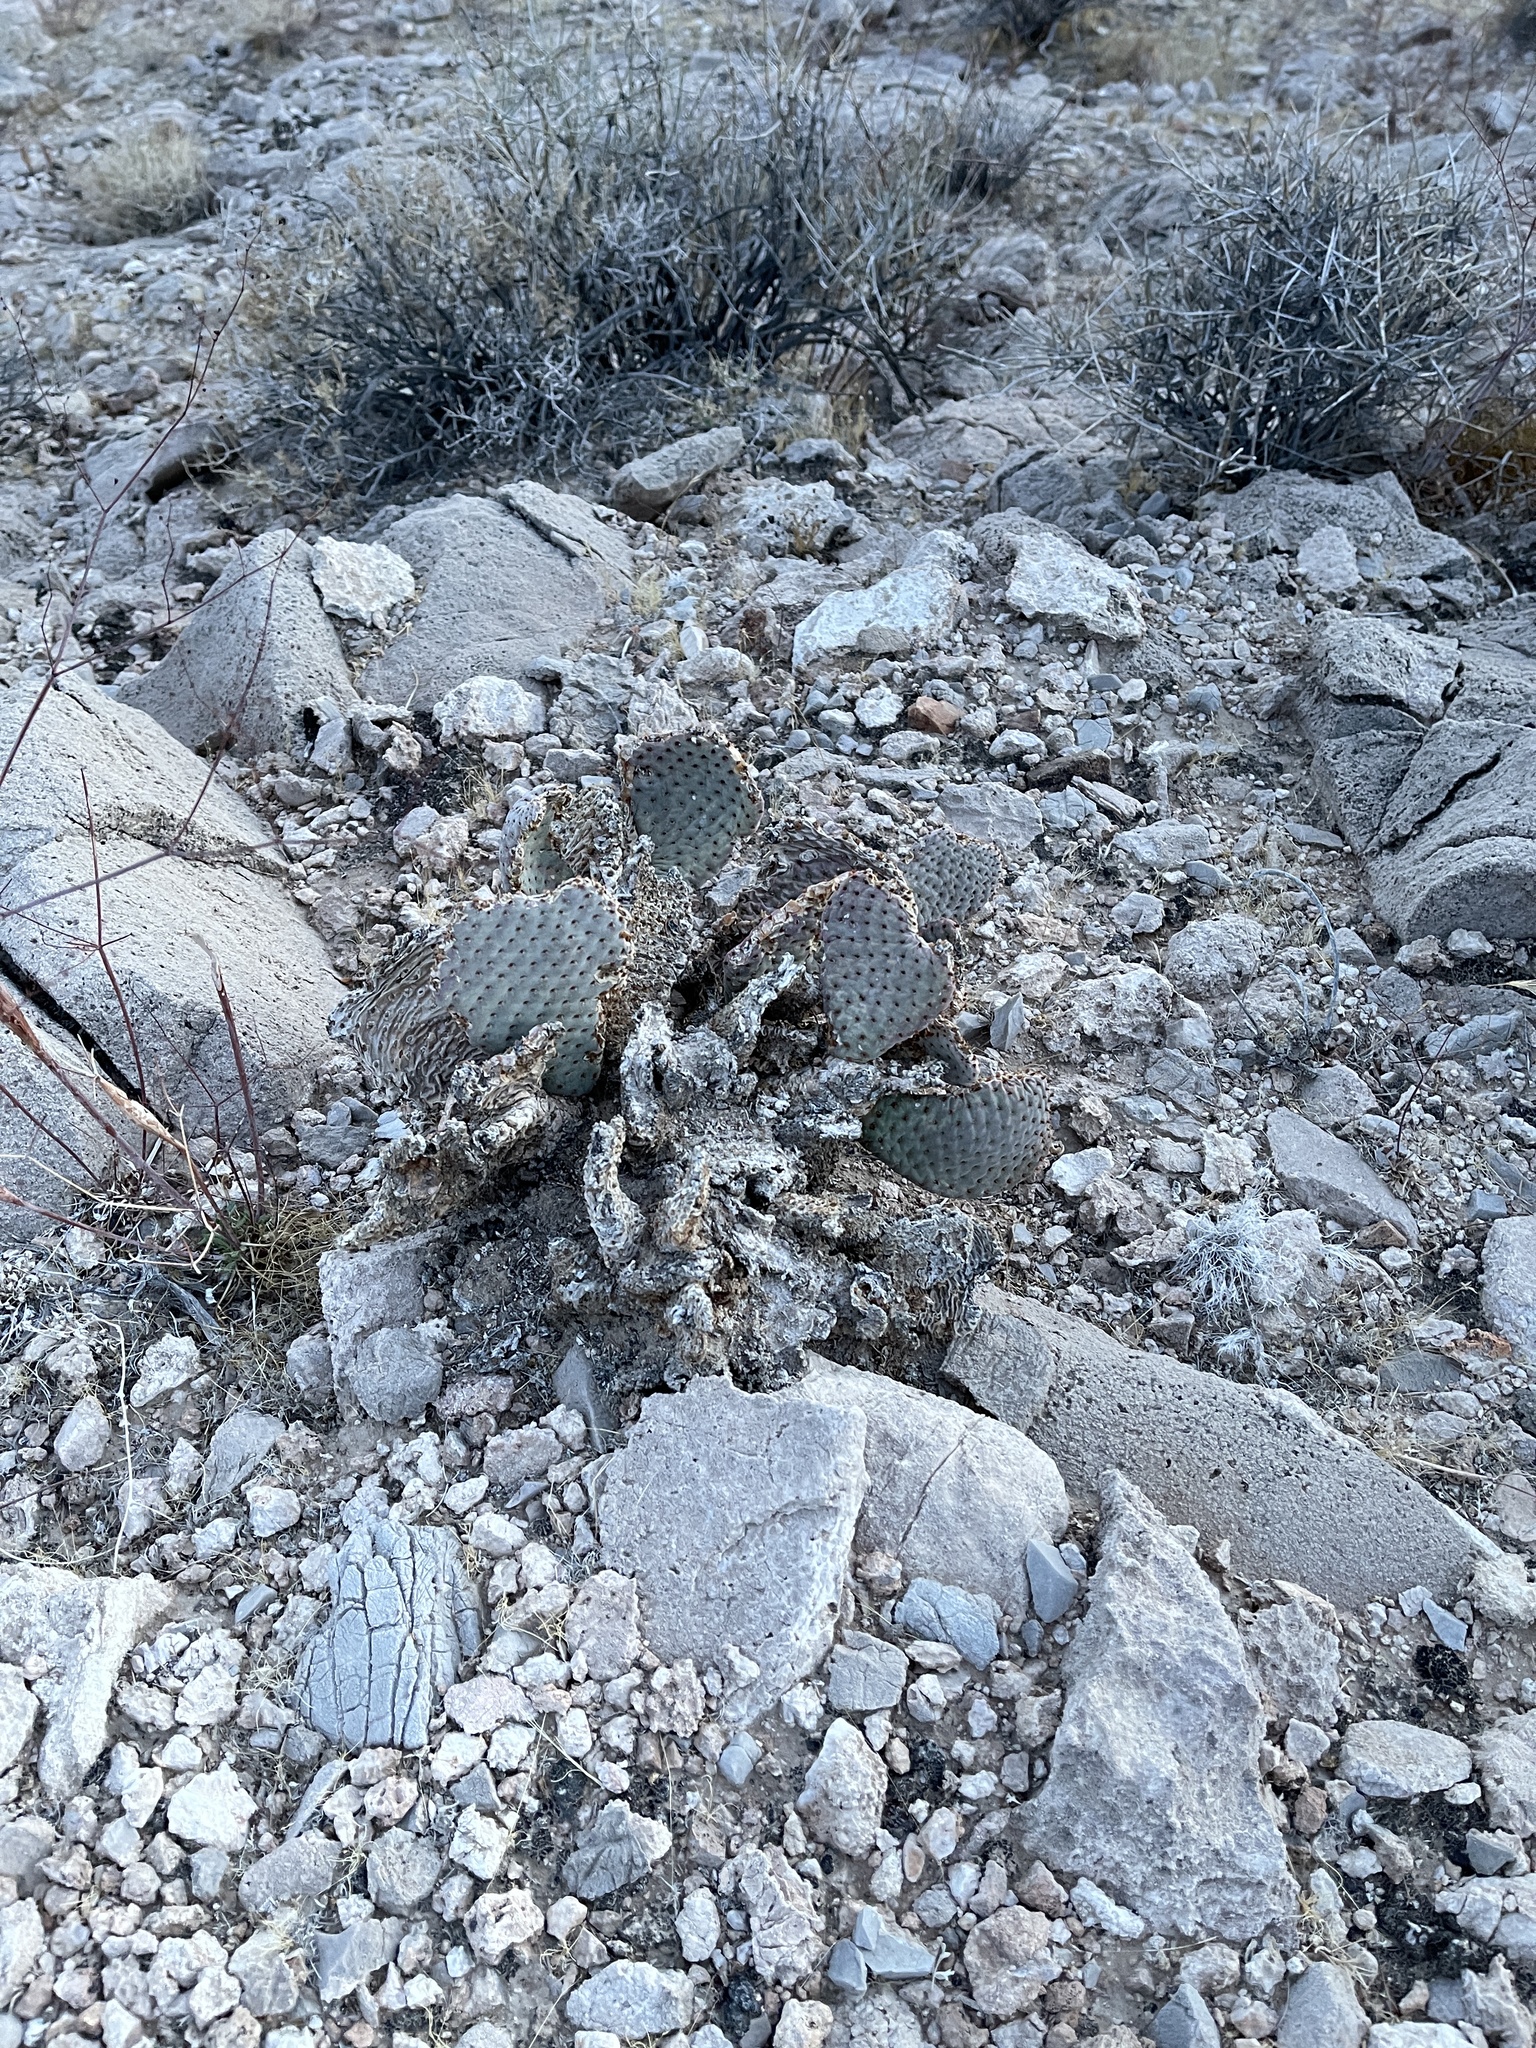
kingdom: Plantae
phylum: Tracheophyta
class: Magnoliopsida
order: Caryophyllales
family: Cactaceae
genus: Opuntia
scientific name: Opuntia basilaris
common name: Beavertail prickly-pear
